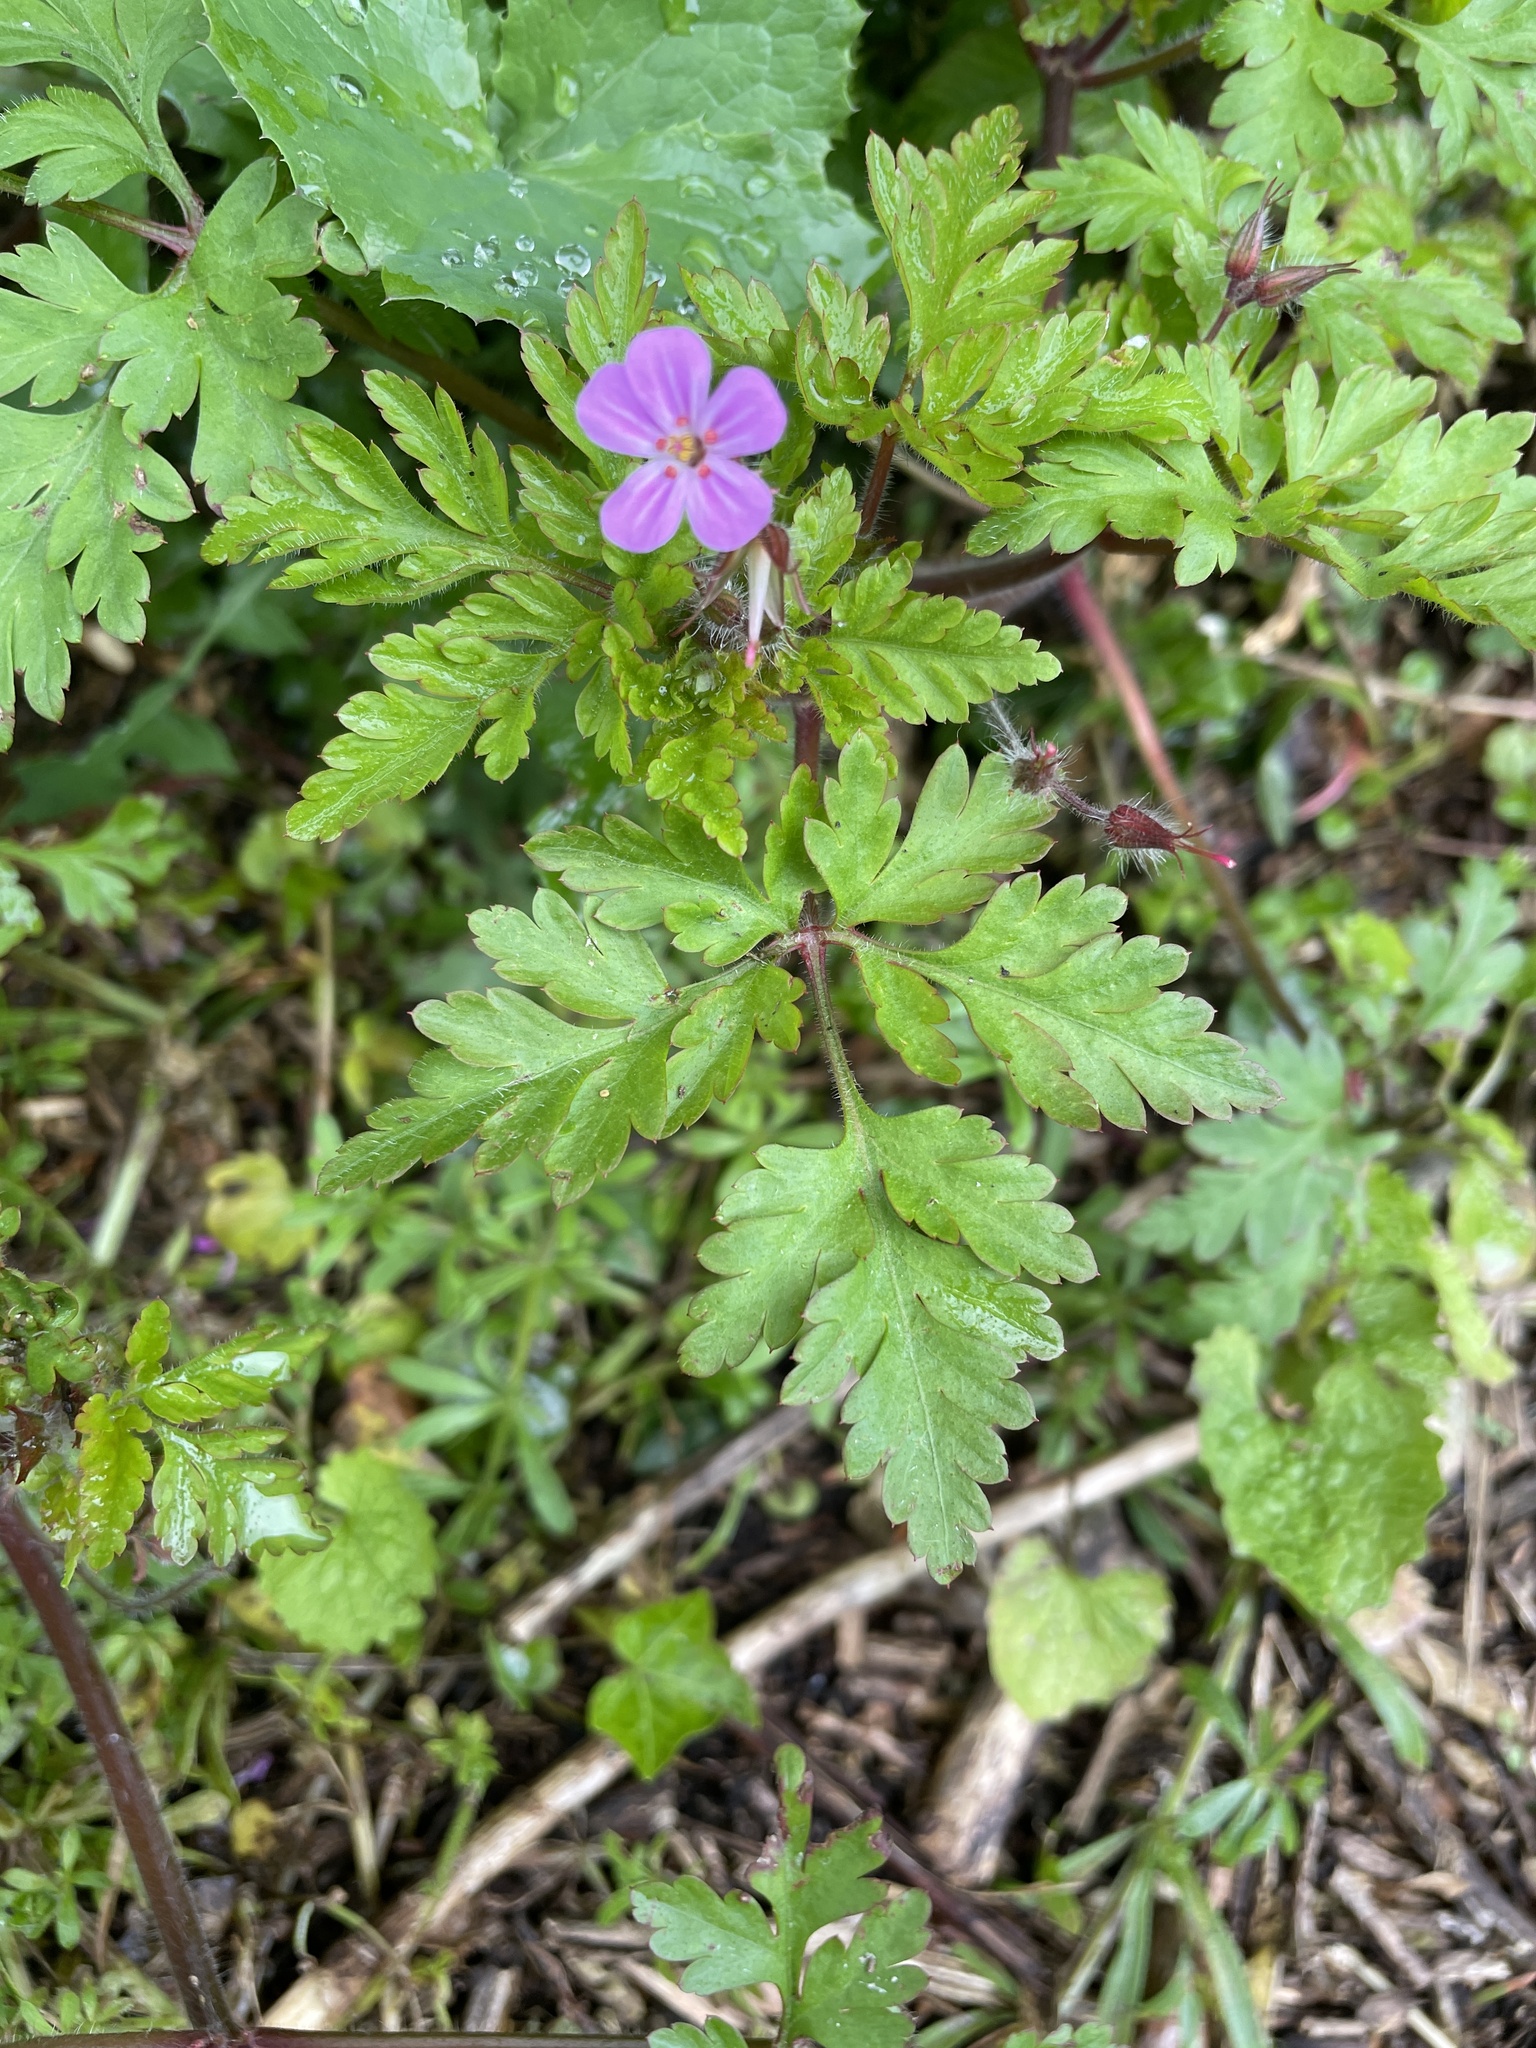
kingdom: Plantae
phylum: Tracheophyta
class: Magnoliopsida
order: Geraniales
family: Geraniaceae
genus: Geranium
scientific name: Geranium robertianum
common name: Herb-robert
